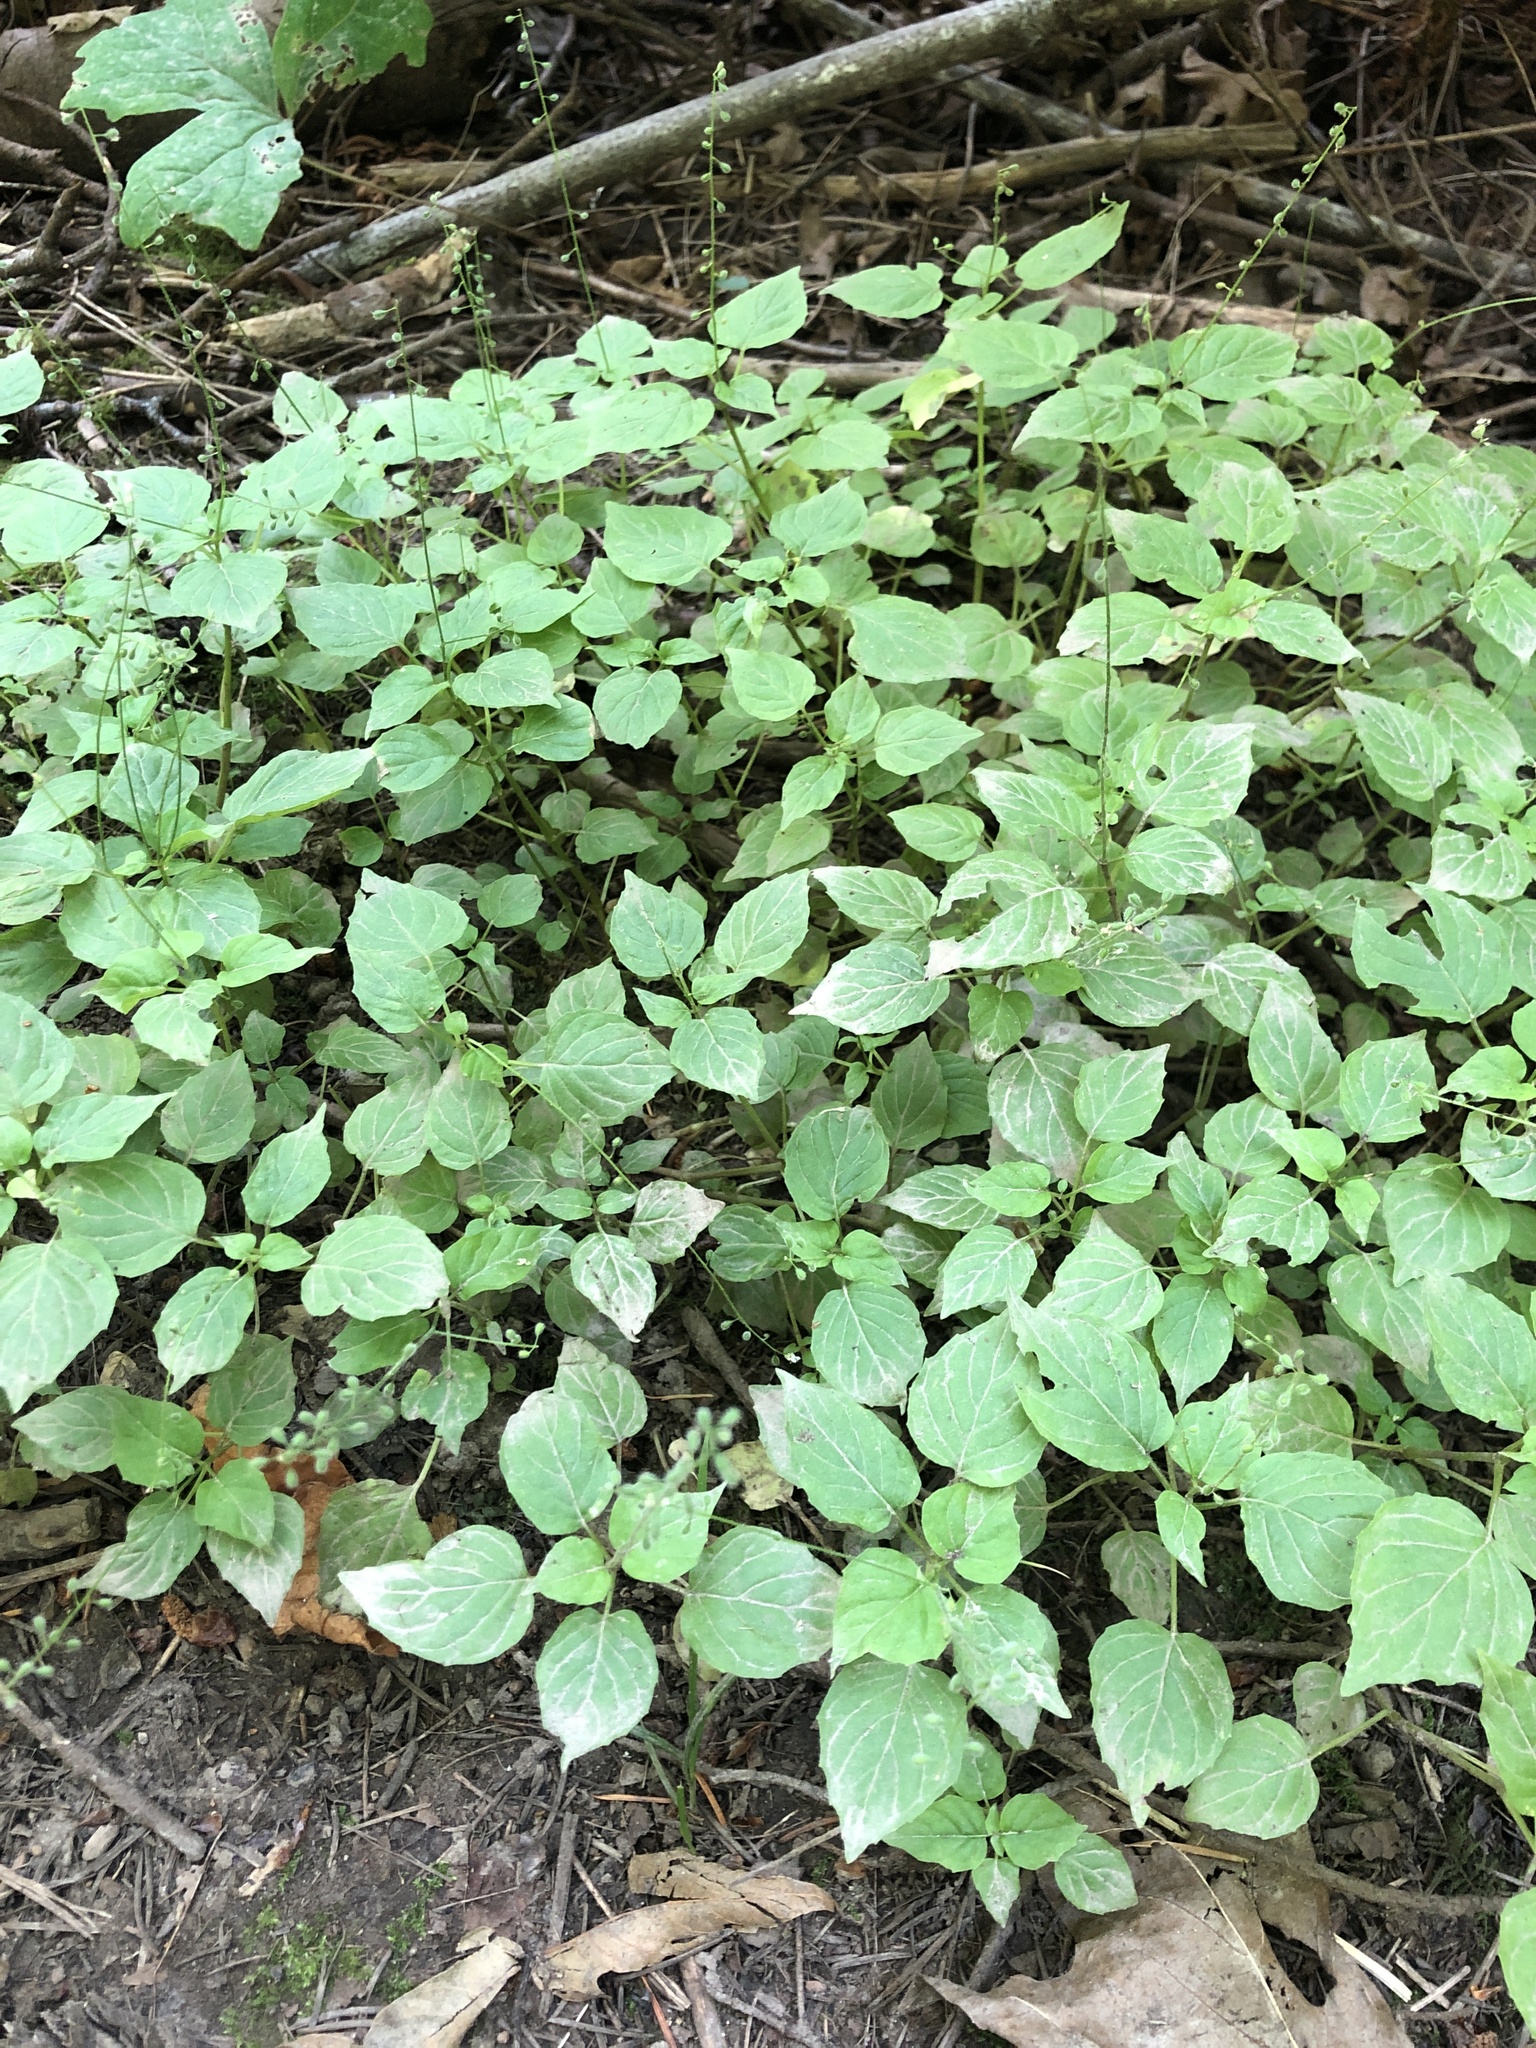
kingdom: Plantae
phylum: Tracheophyta
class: Magnoliopsida
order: Myrtales
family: Onagraceae
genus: Circaea
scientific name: Circaea alpina
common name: Alpine enchanter's-nightshade
